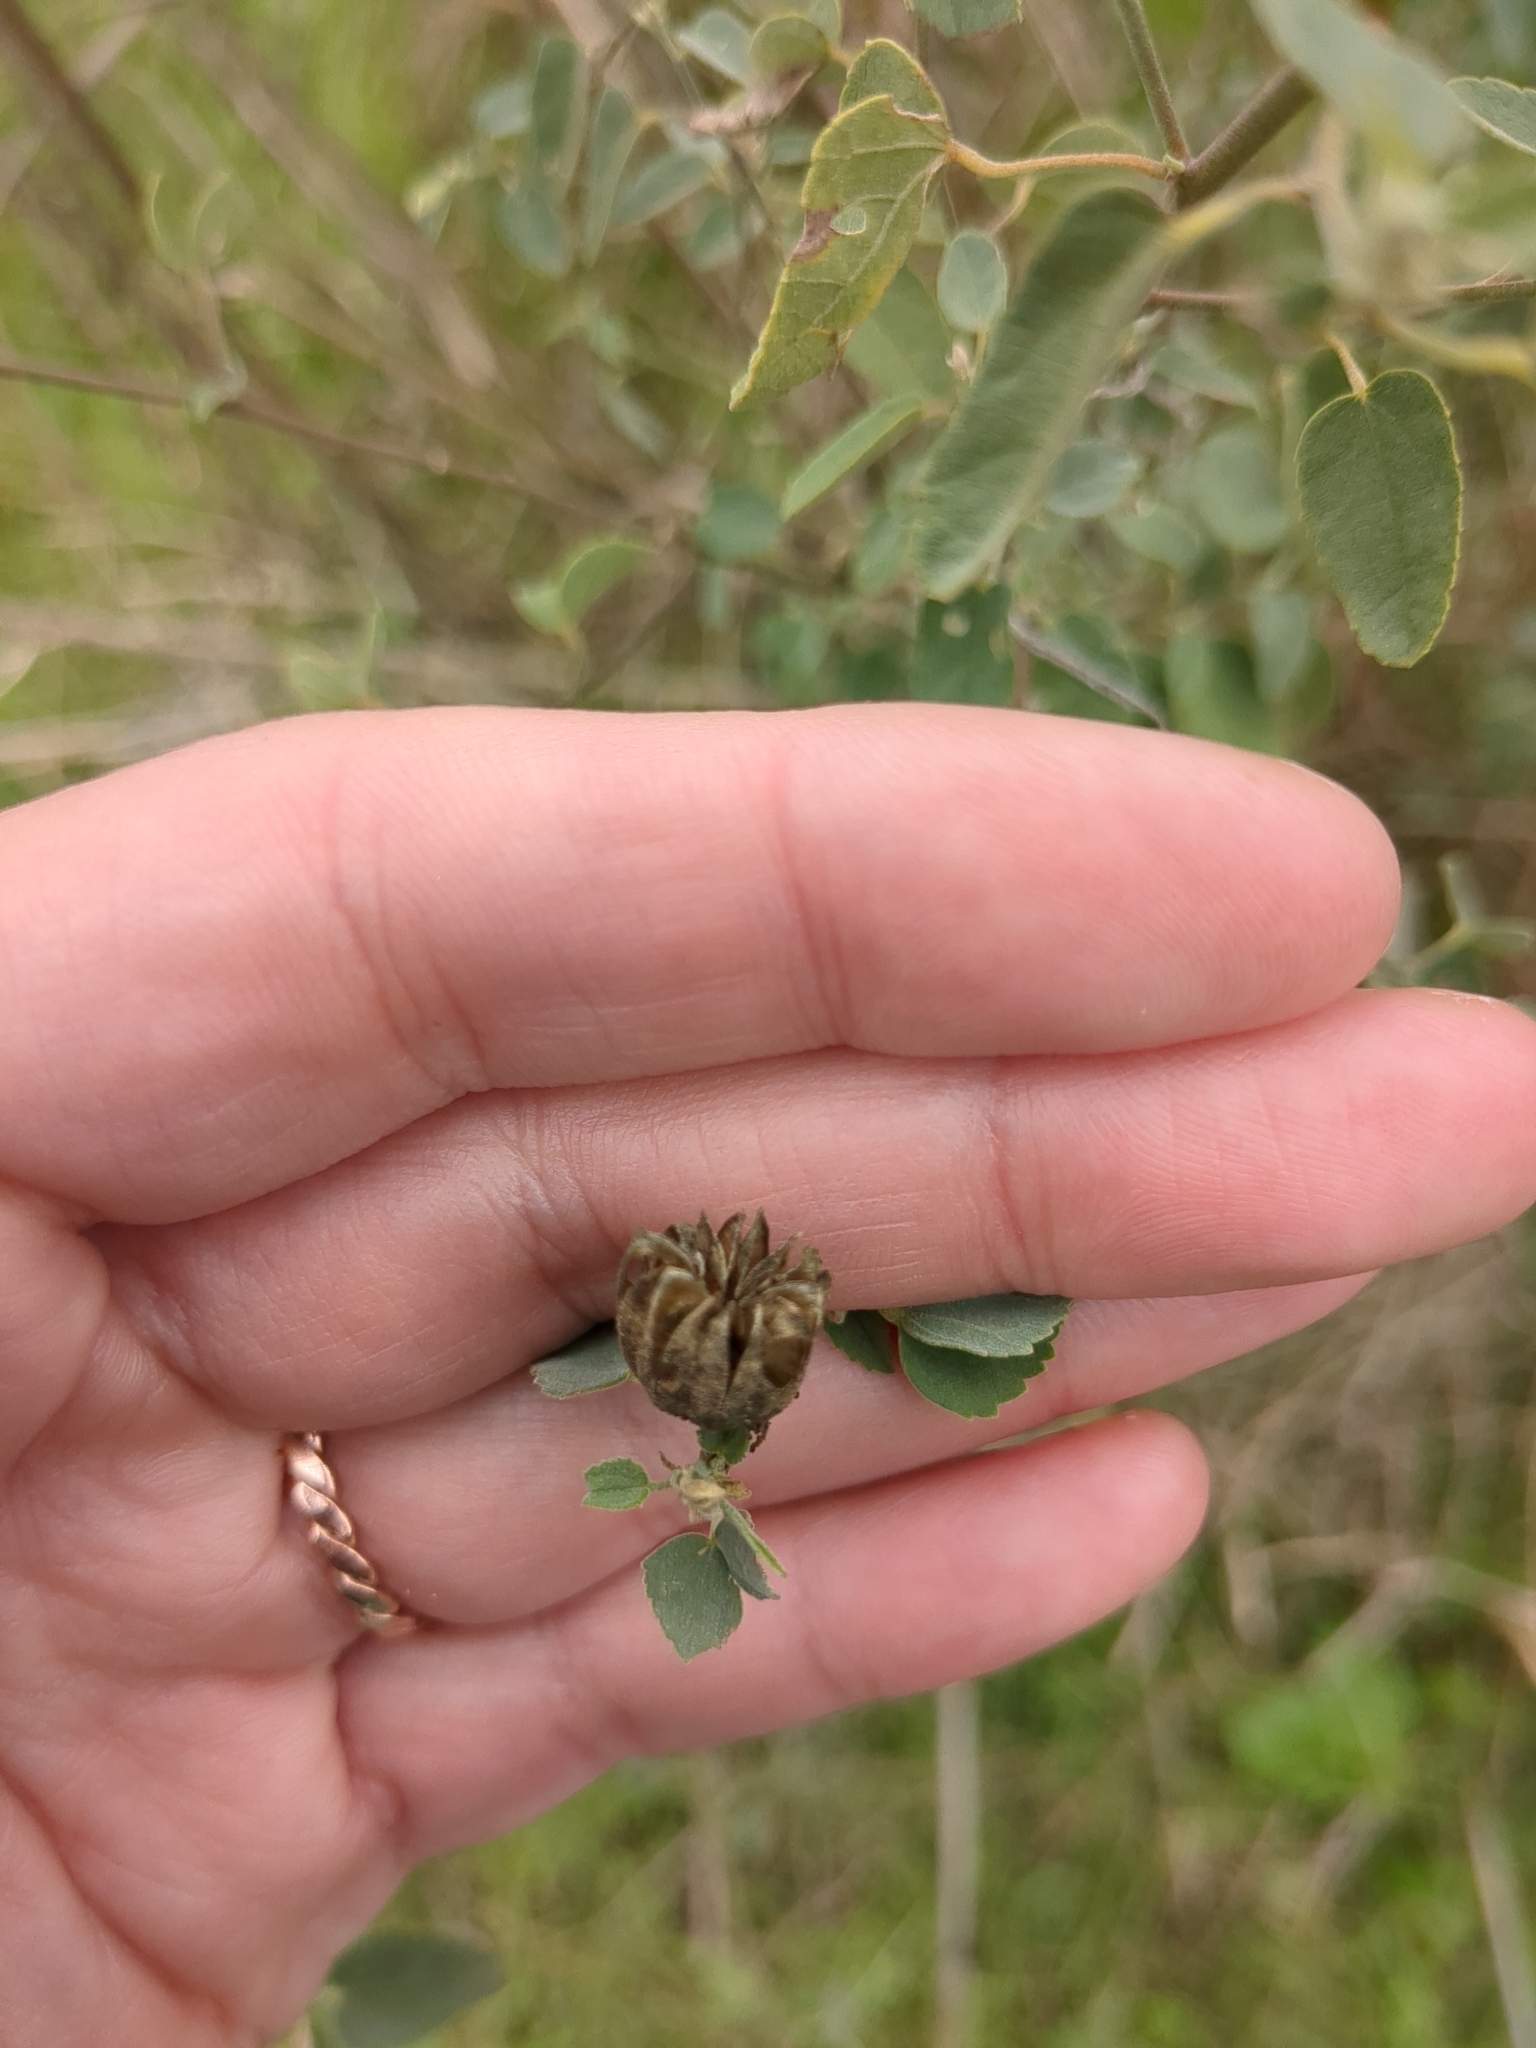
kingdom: Plantae
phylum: Tracheophyta
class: Magnoliopsida
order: Malvales
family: Malvaceae
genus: Abutilon
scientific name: Abutilon fruticosum
